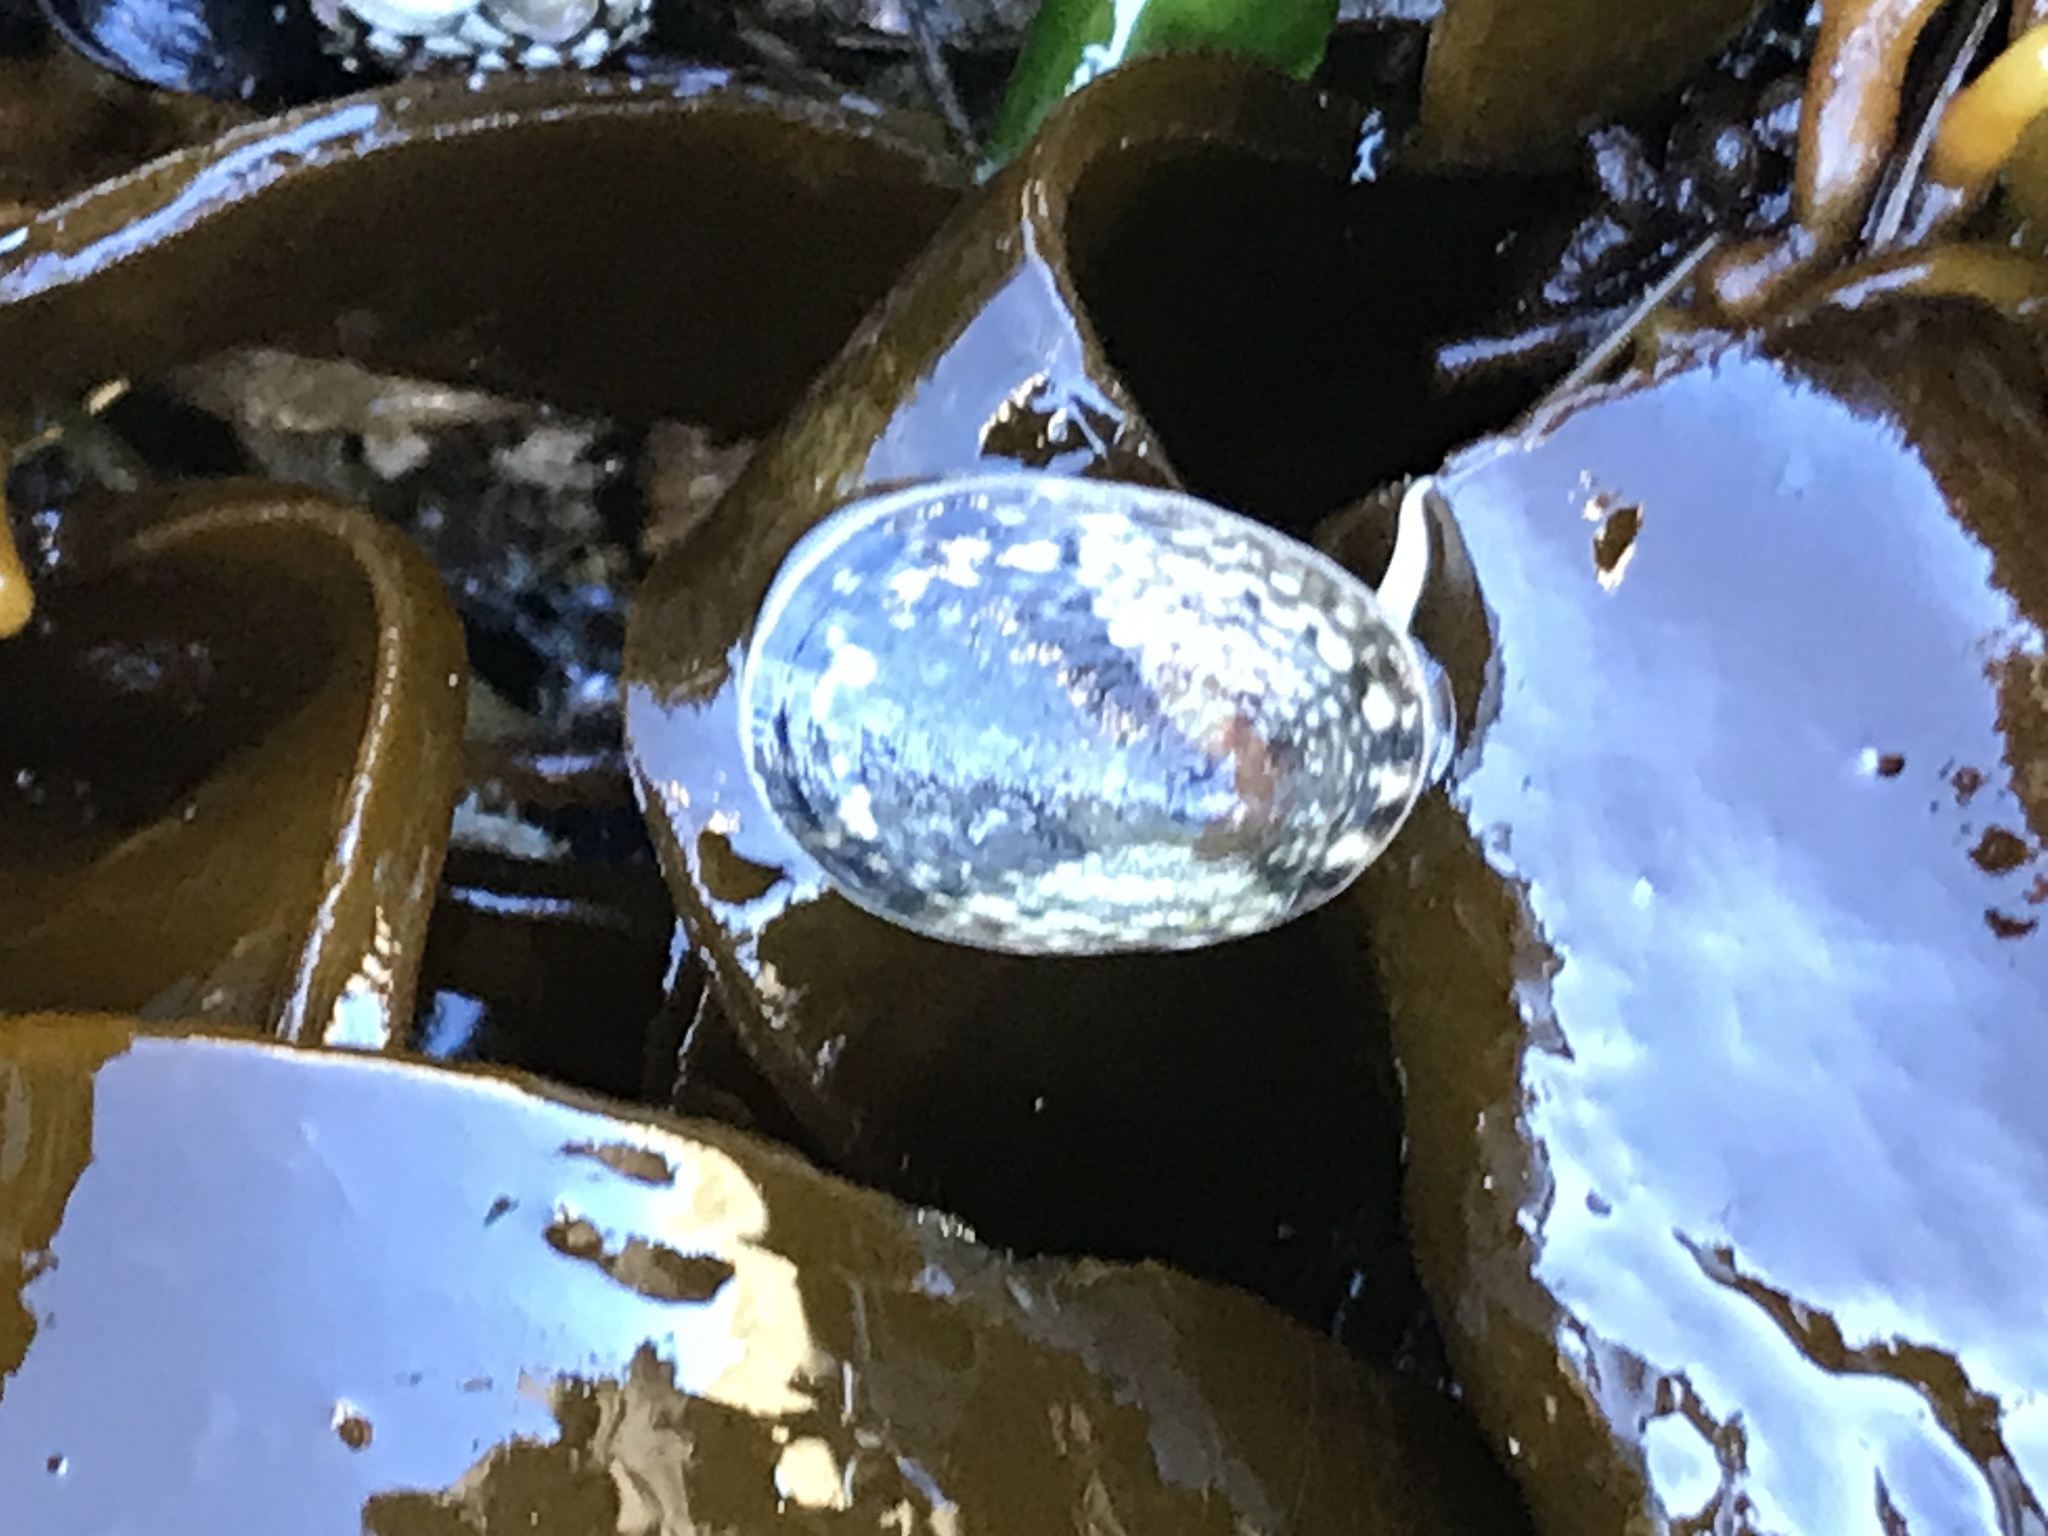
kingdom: Animalia
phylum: Mollusca
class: Gastropoda
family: Lottiidae
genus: Lottia
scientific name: Lottia pelta
